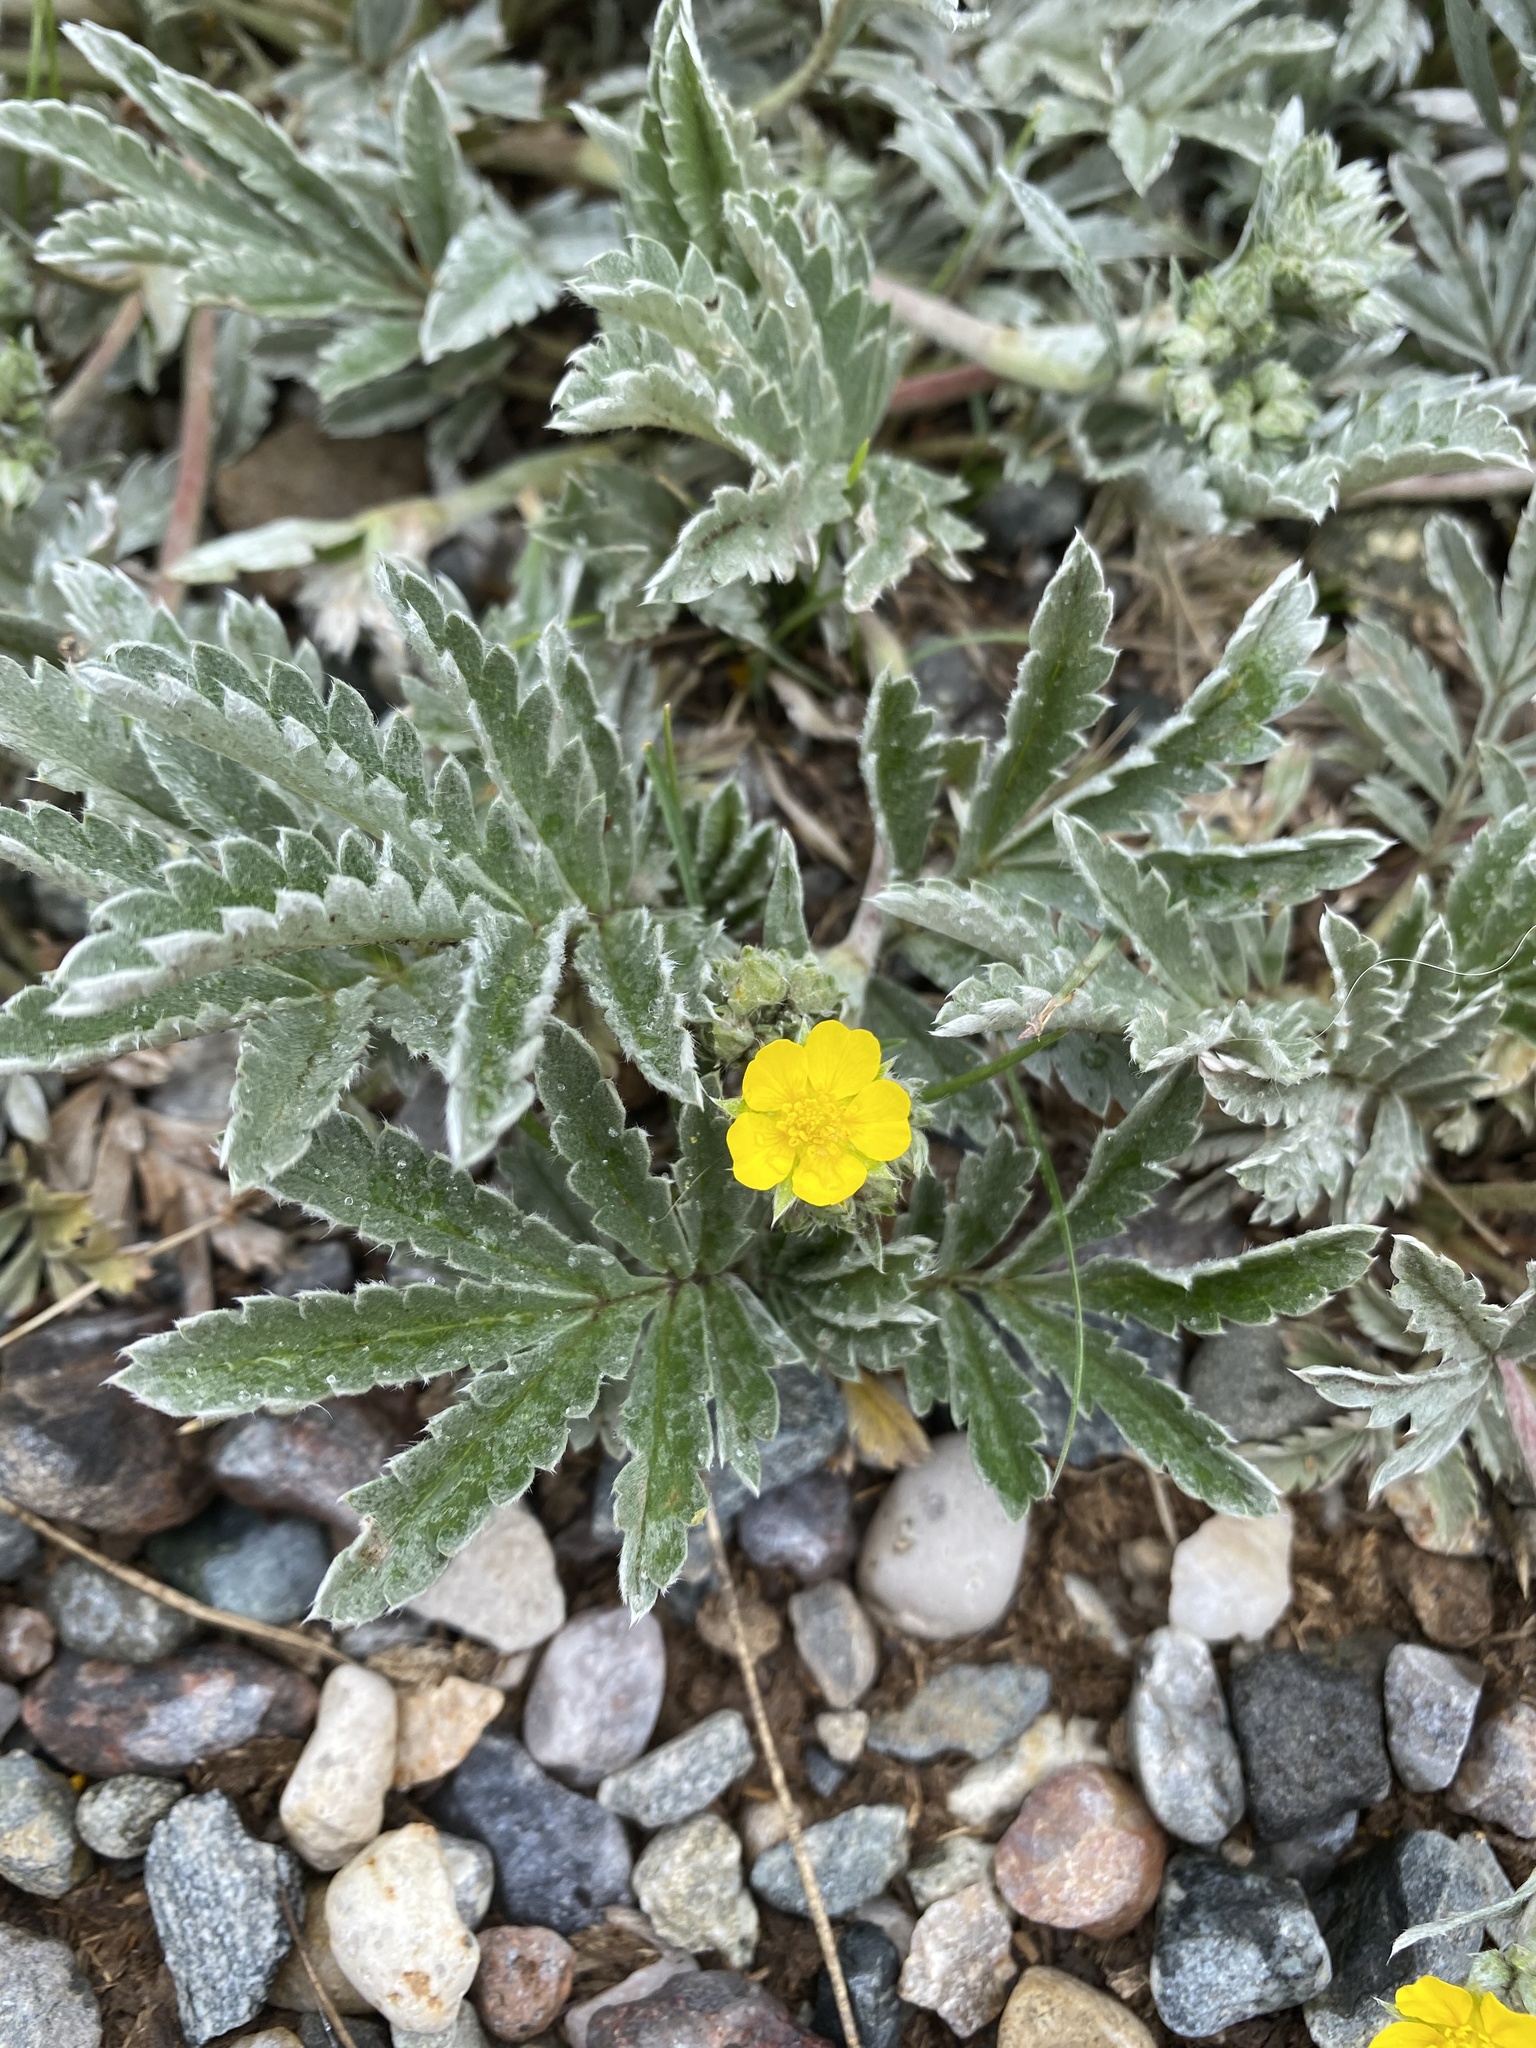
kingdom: Plantae
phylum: Tracheophyta
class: Magnoliopsida
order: Rosales
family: Rosaceae
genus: Potentilla
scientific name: Potentilla hippiana
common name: Woolly cinquefoil
